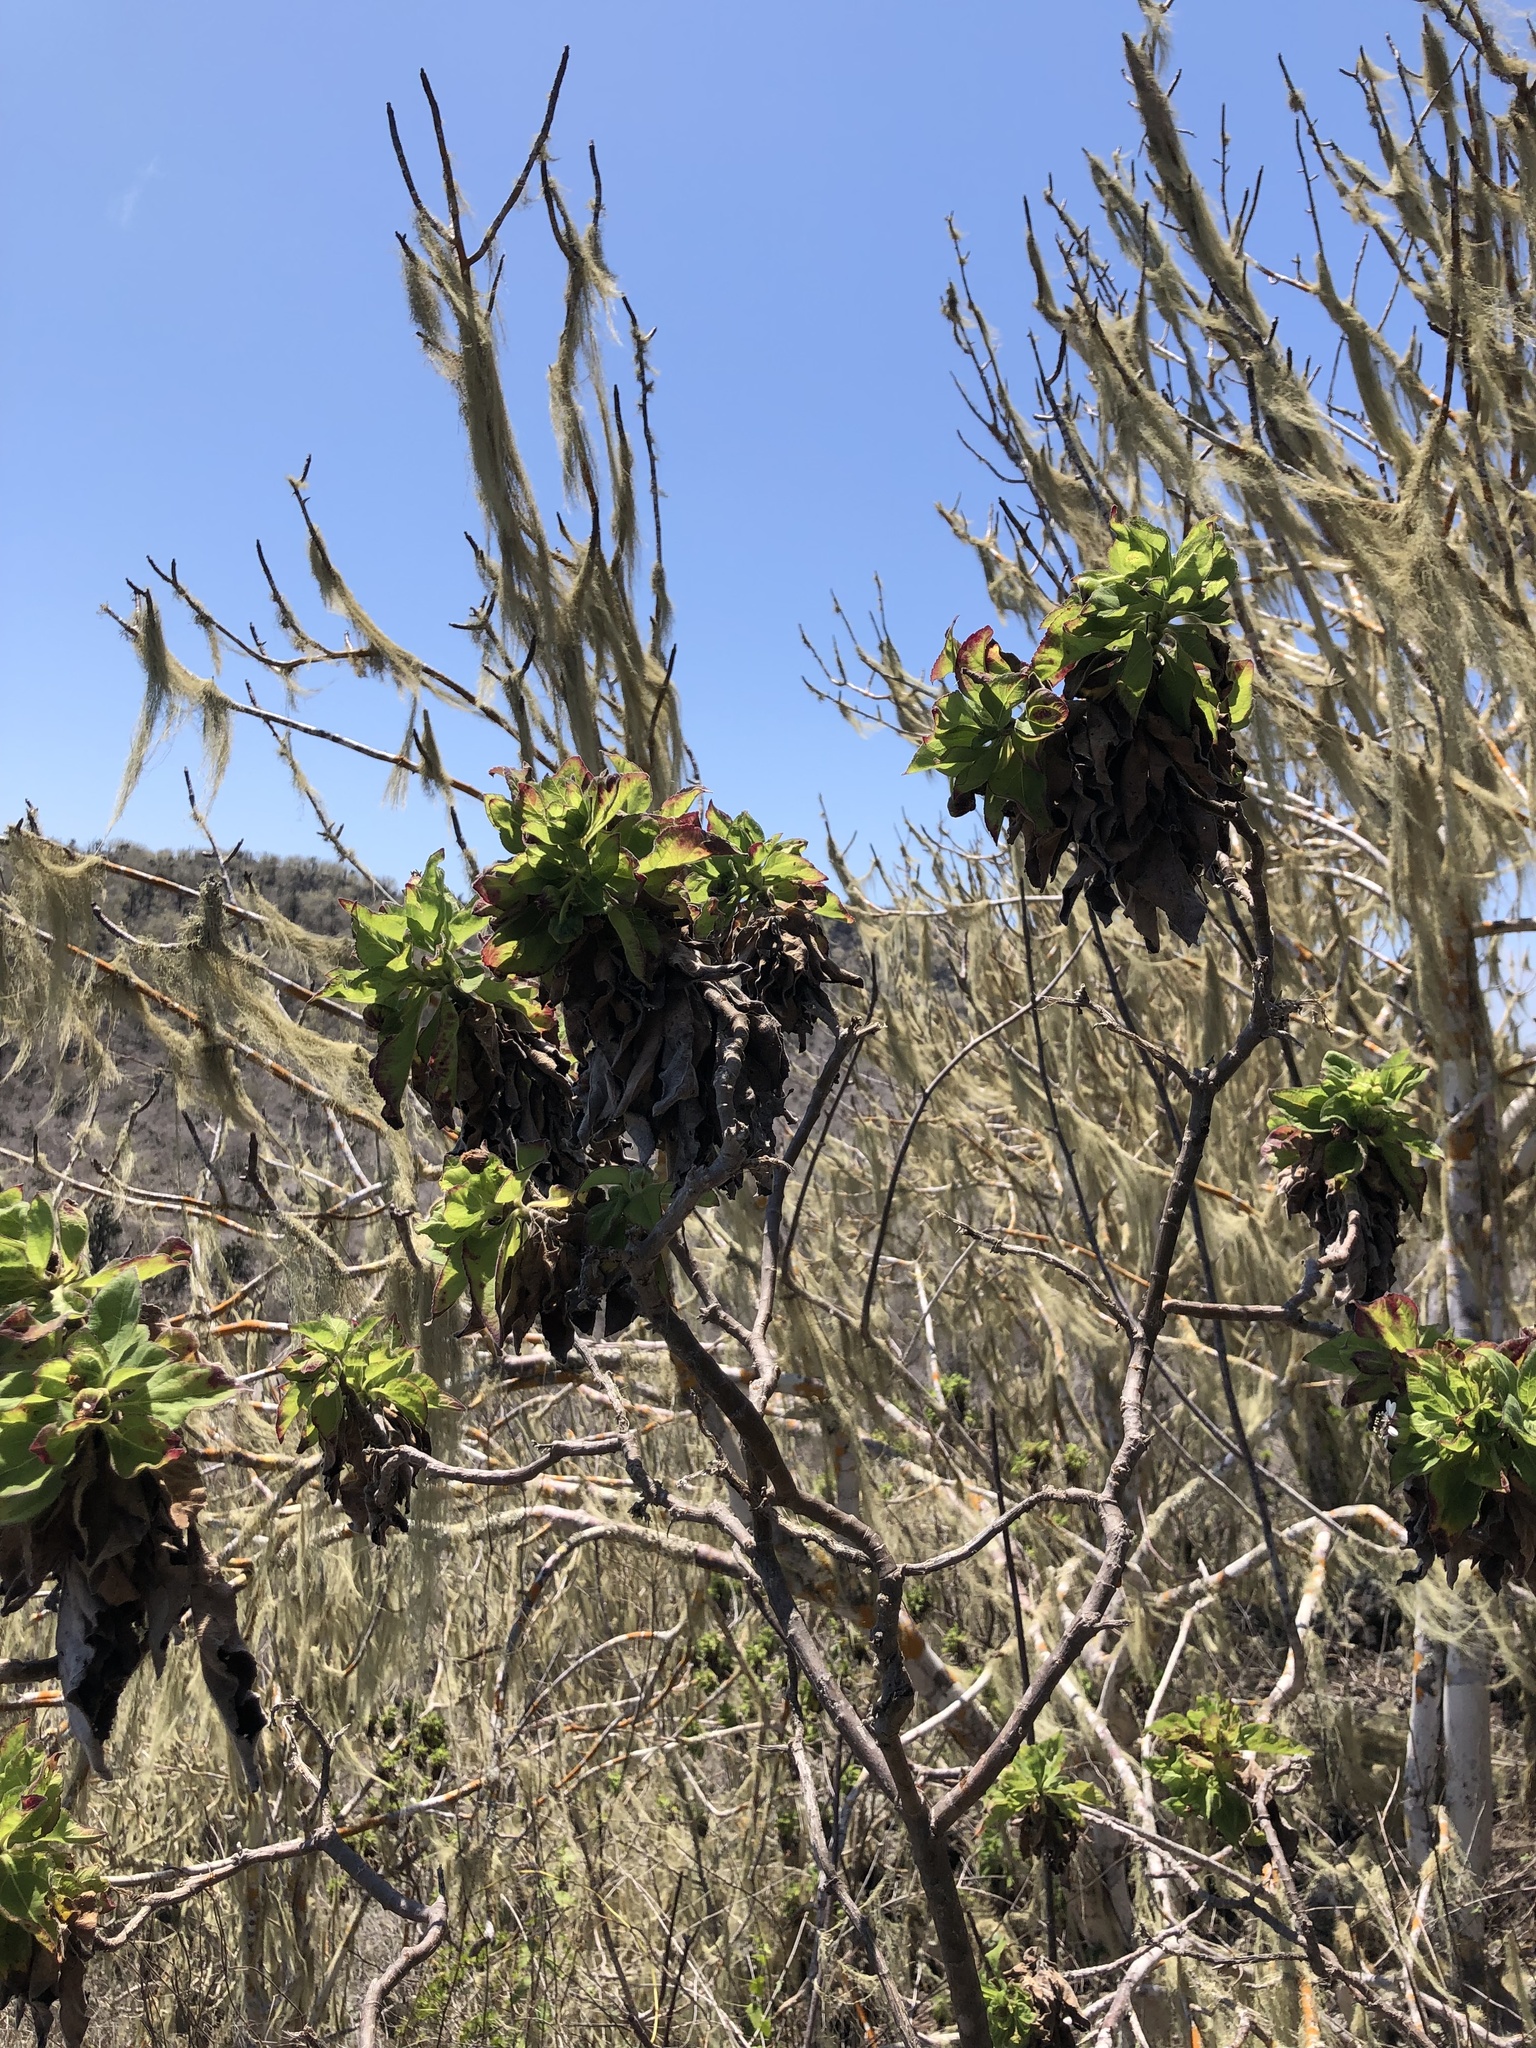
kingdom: Plantae
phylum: Tracheophyta
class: Magnoliopsida
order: Asterales
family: Asteraceae
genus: Scalesia
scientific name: Scalesia affinis
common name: Radiate-headed scalesia
